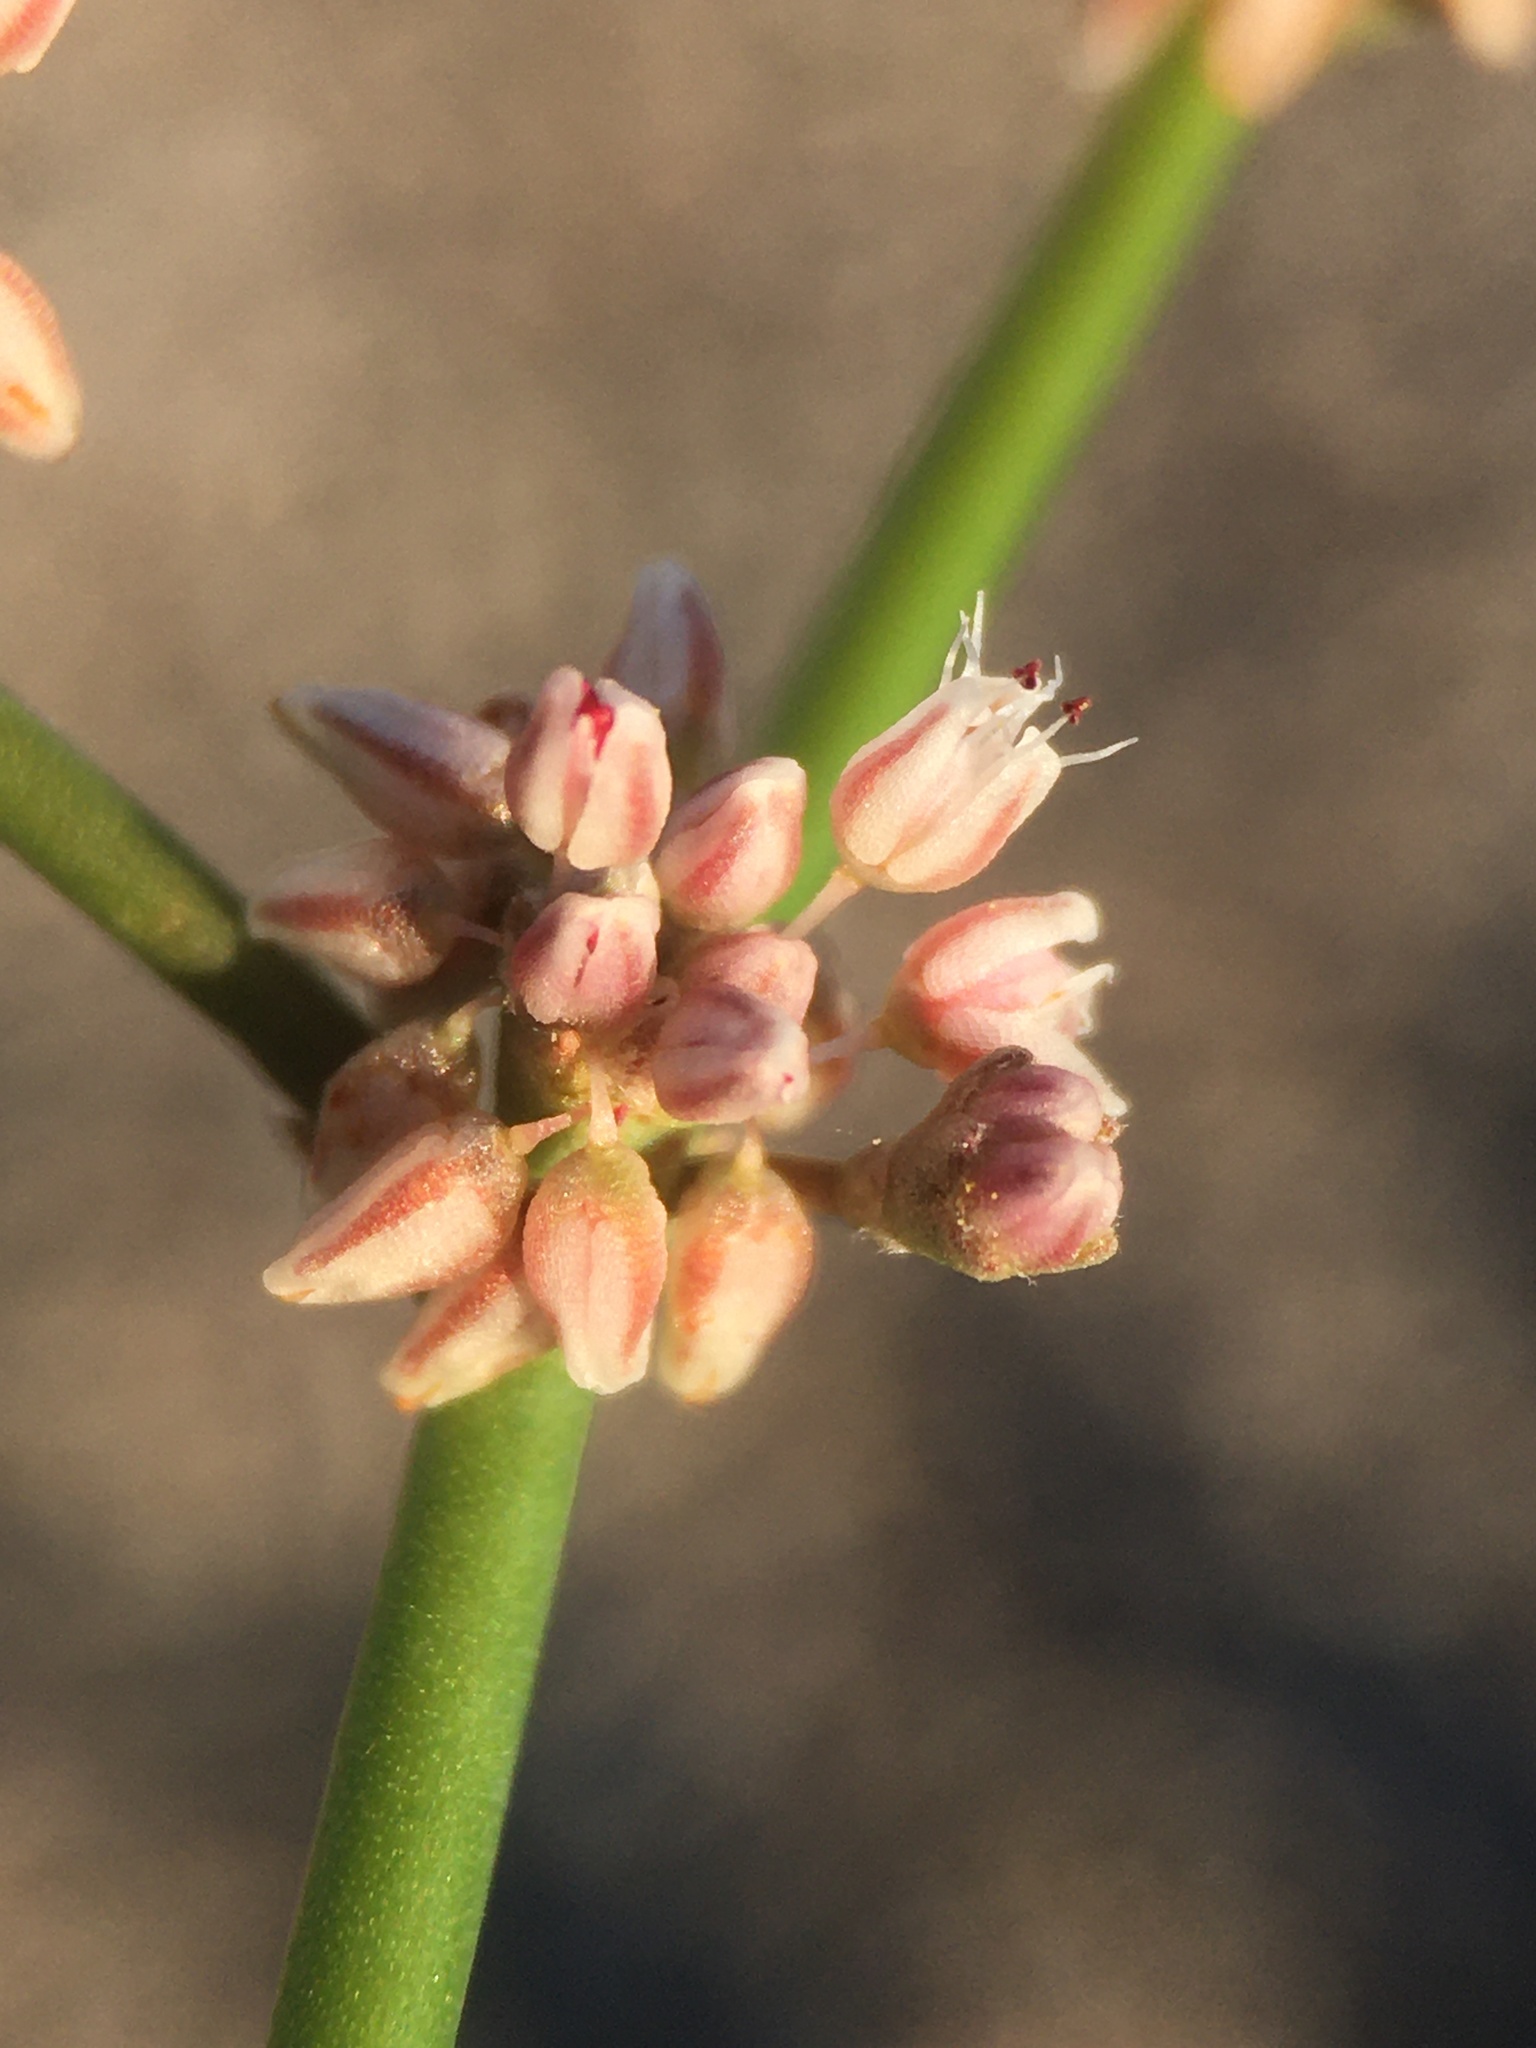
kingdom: Plantae
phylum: Tracheophyta
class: Magnoliopsida
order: Caryophyllales
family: Polygonaceae
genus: Eriogonum
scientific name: Eriogonum hoffmannii
